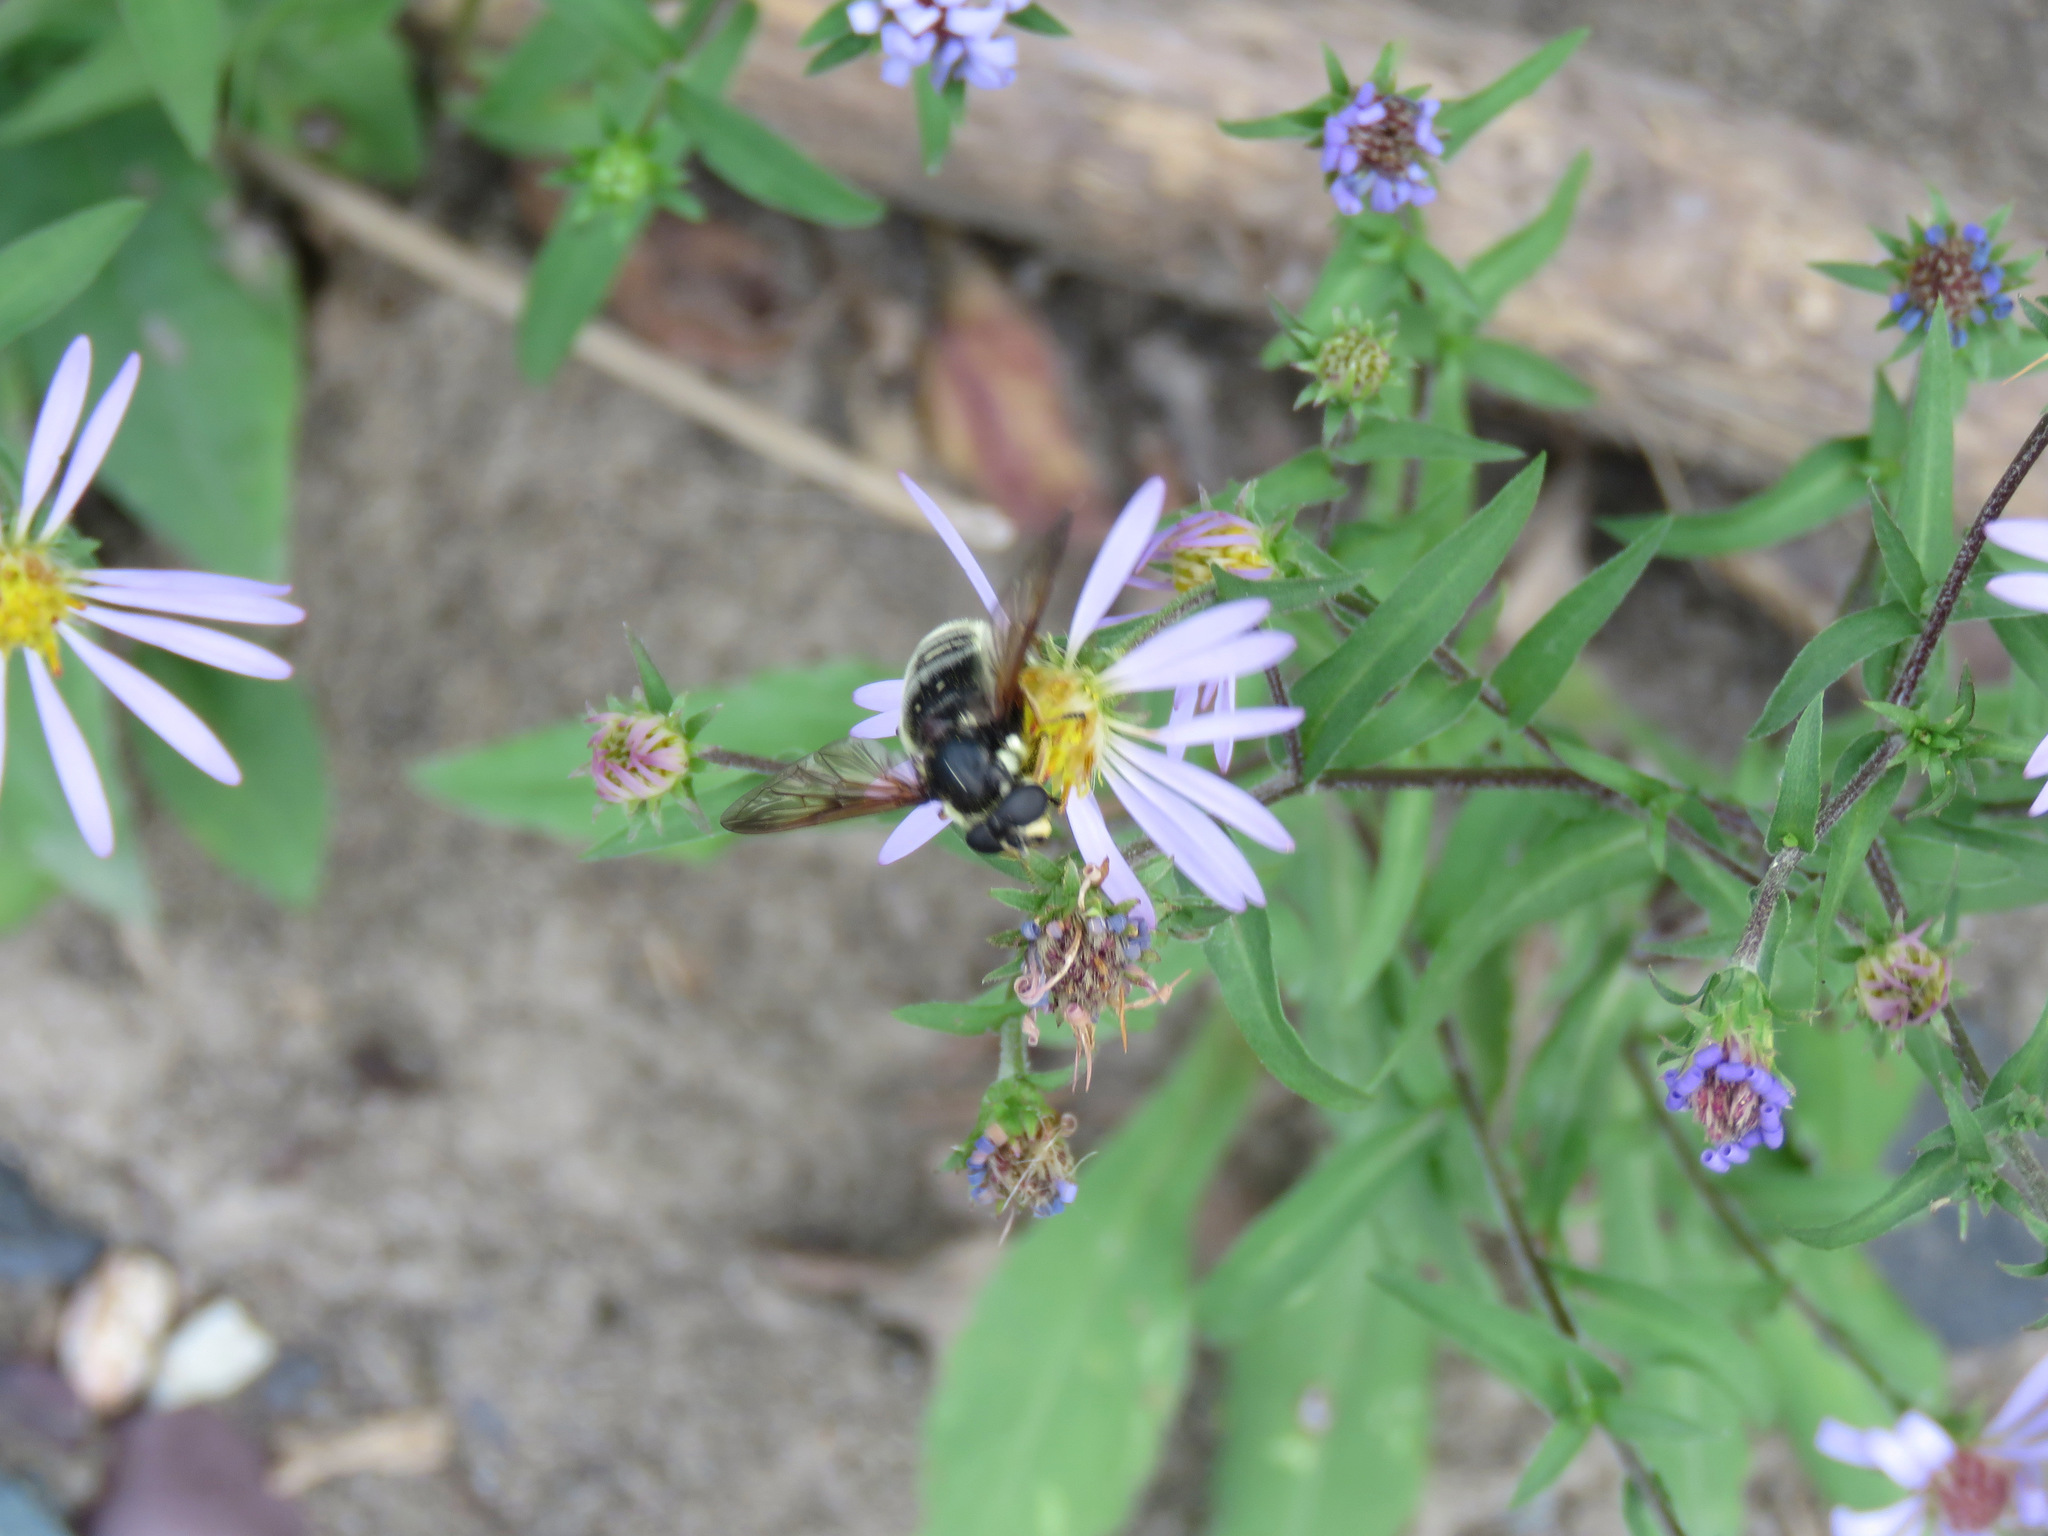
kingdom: Animalia
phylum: Arthropoda
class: Insecta
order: Diptera
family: Syrphidae
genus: Sericomyia
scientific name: Sericomyia militaris
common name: Narrow-banded pond fly
